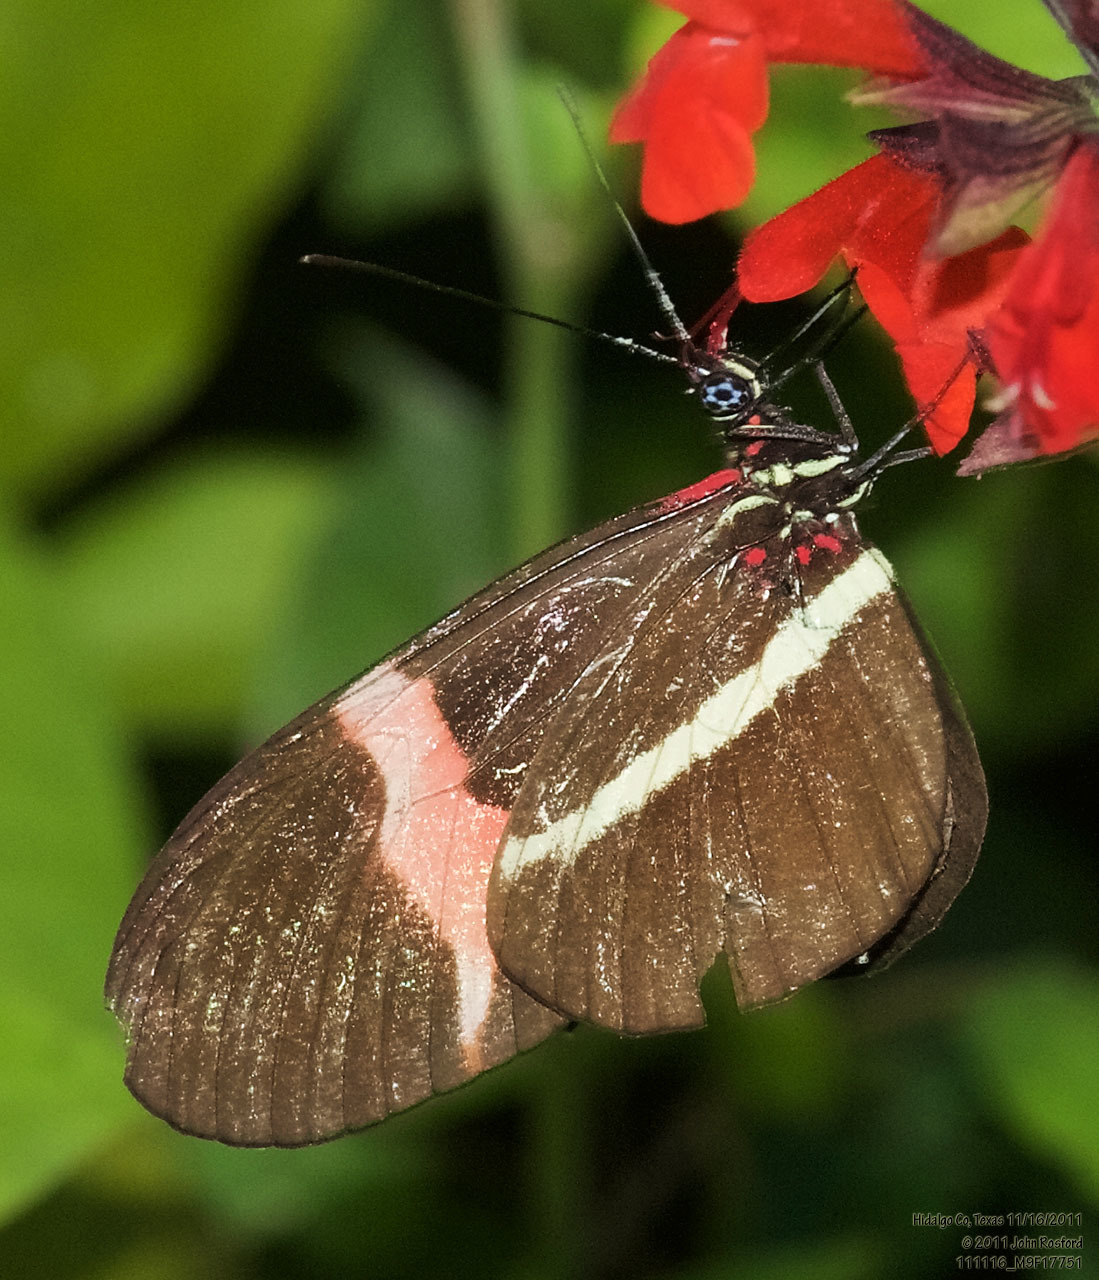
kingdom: Animalia
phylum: Arthropoda
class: Insecta
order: Lepidoptera
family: Nymphalidae
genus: Heliconius
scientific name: Heliconius erato
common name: Common patch longwing
